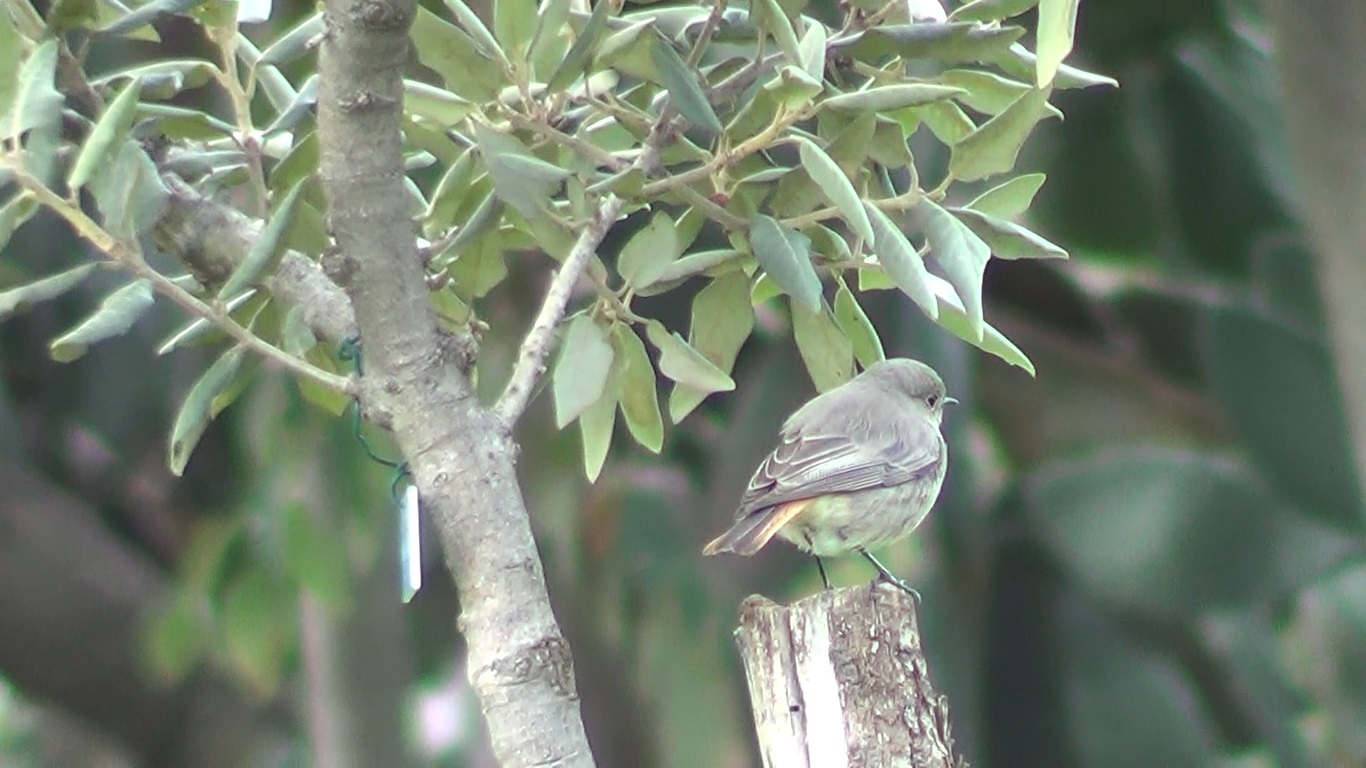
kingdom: Animalia
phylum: Chordata
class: Aves
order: Passeriformes
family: Muscicapidae
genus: Phoenicurus
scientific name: Phoenicurus ochruros
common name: Black redstart
